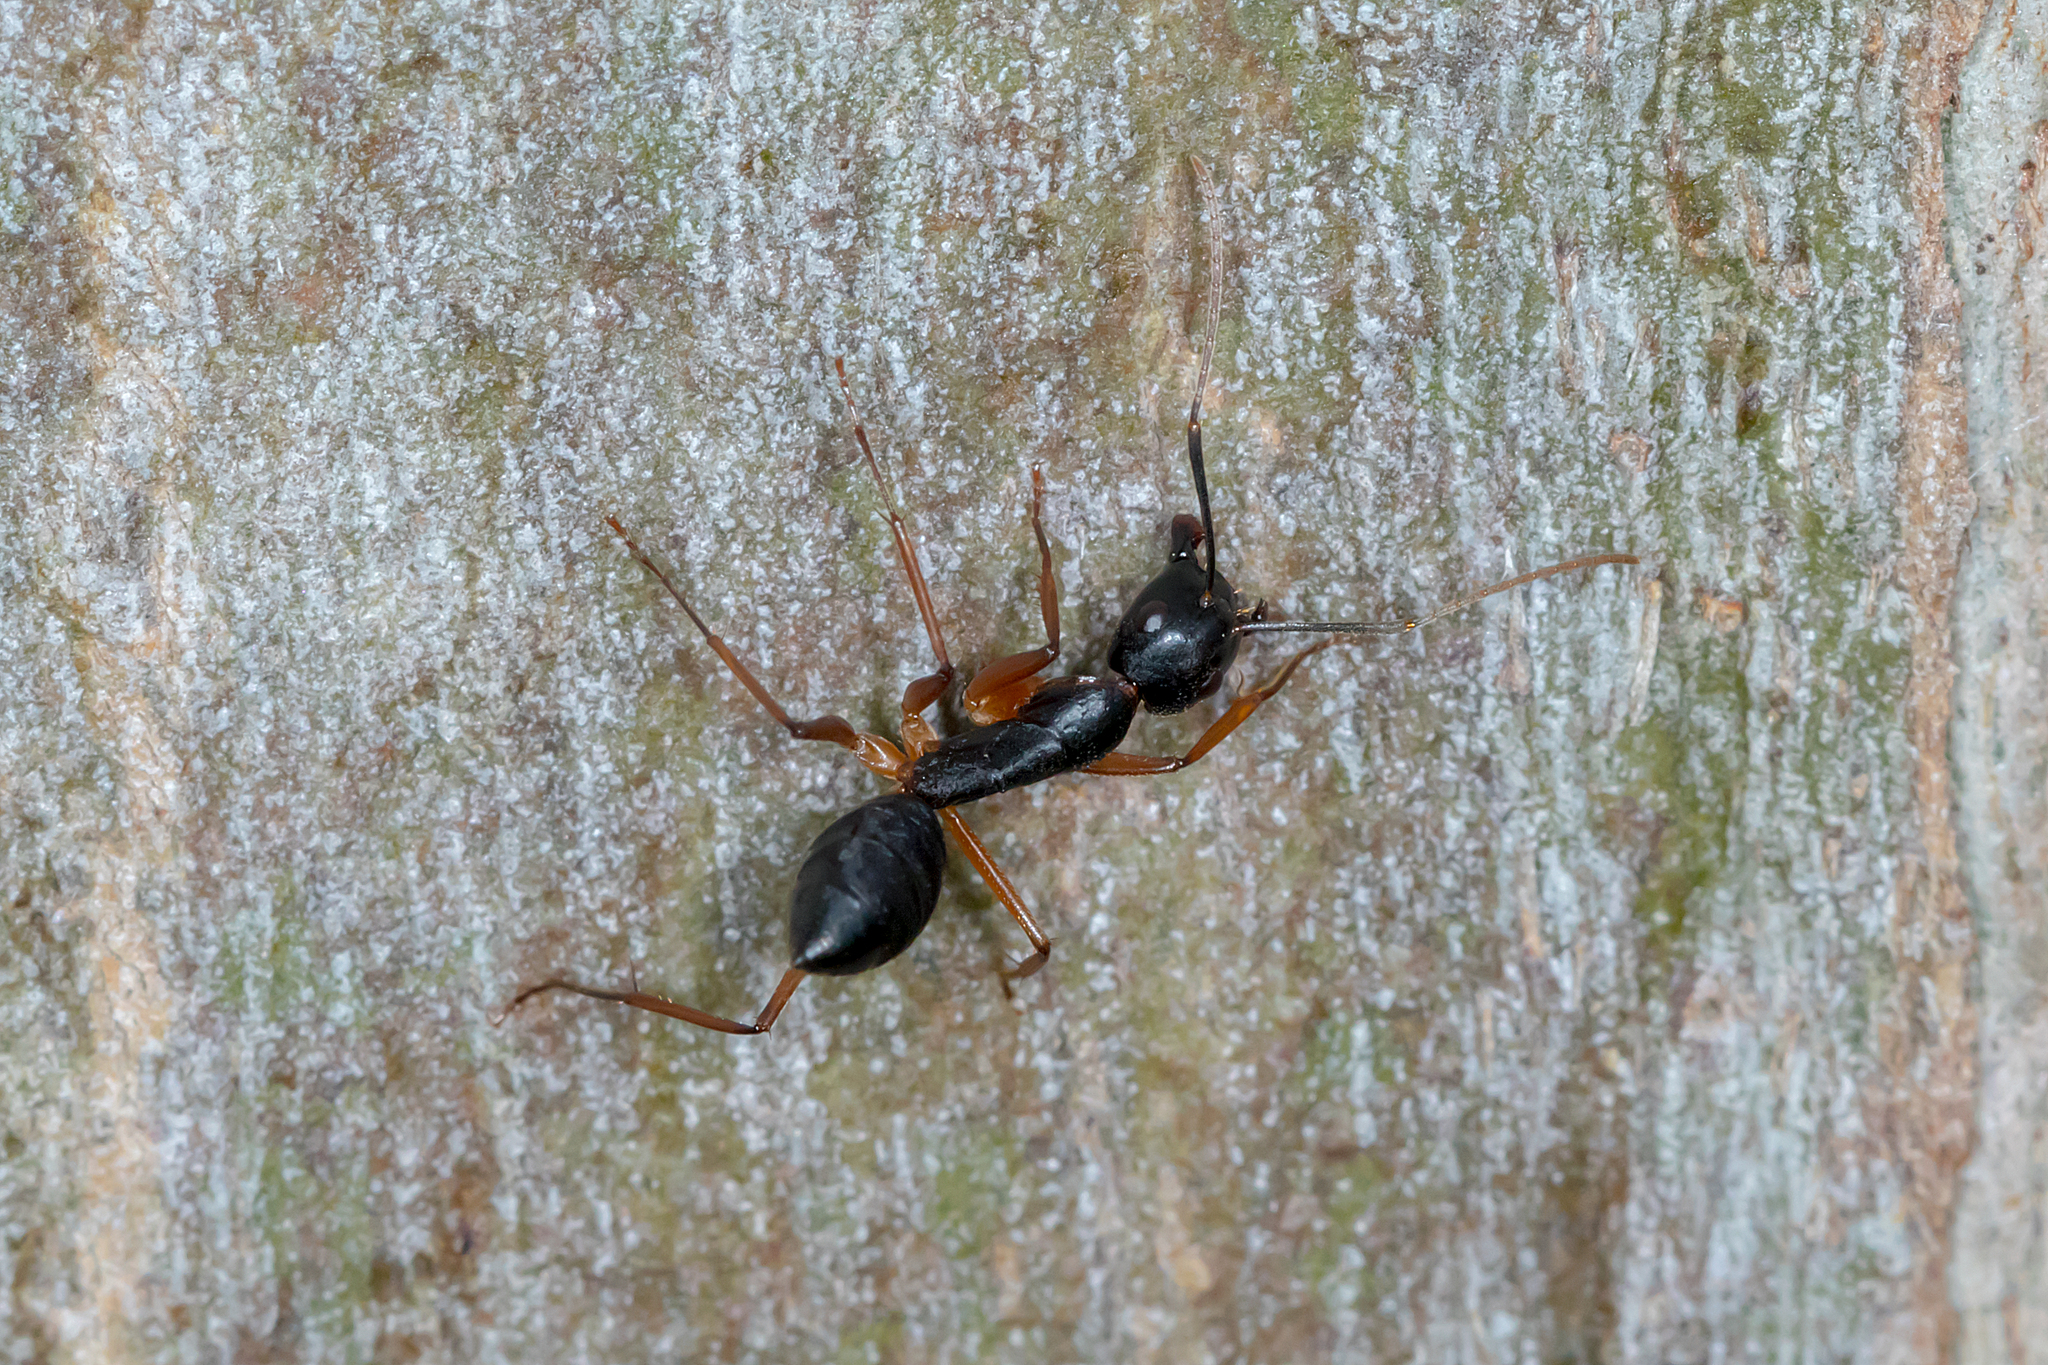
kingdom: Animalia
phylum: Arthropoda
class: Insecta
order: Hymenoptera
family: Formicidae
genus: Camponotus
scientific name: Camponotus consobrinus
